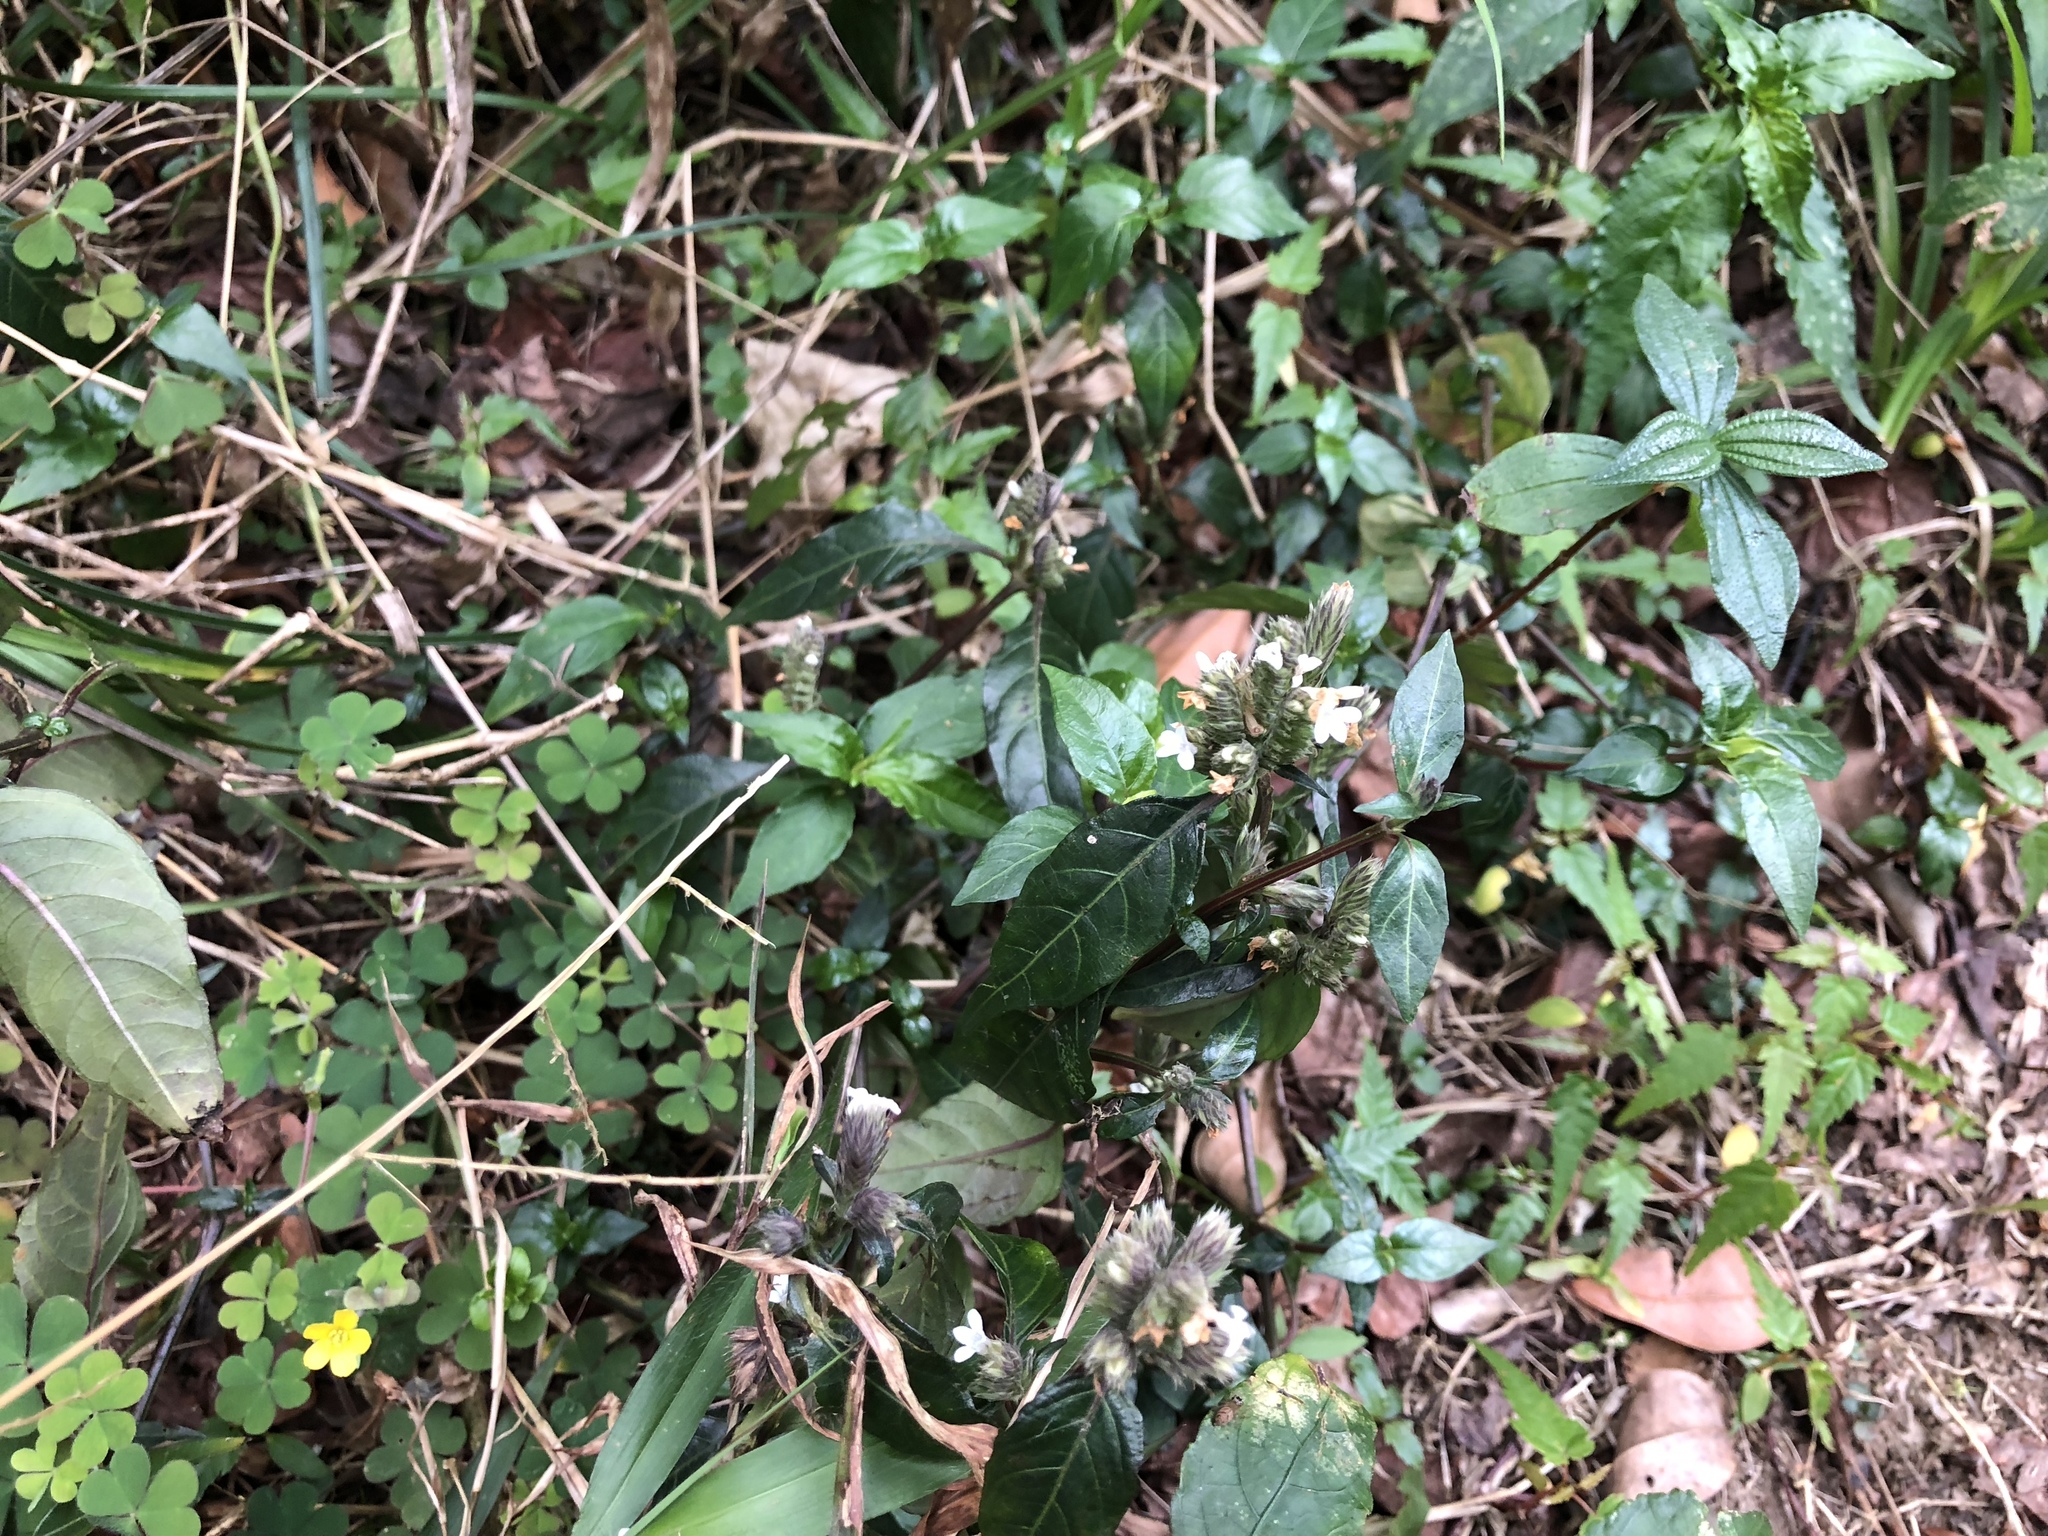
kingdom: Plantae
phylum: Tracheophyta
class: Magnoliopsida
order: Lamiales
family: Acanthaceae
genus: Lepidagathis
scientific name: Lepidagathis formosensis
